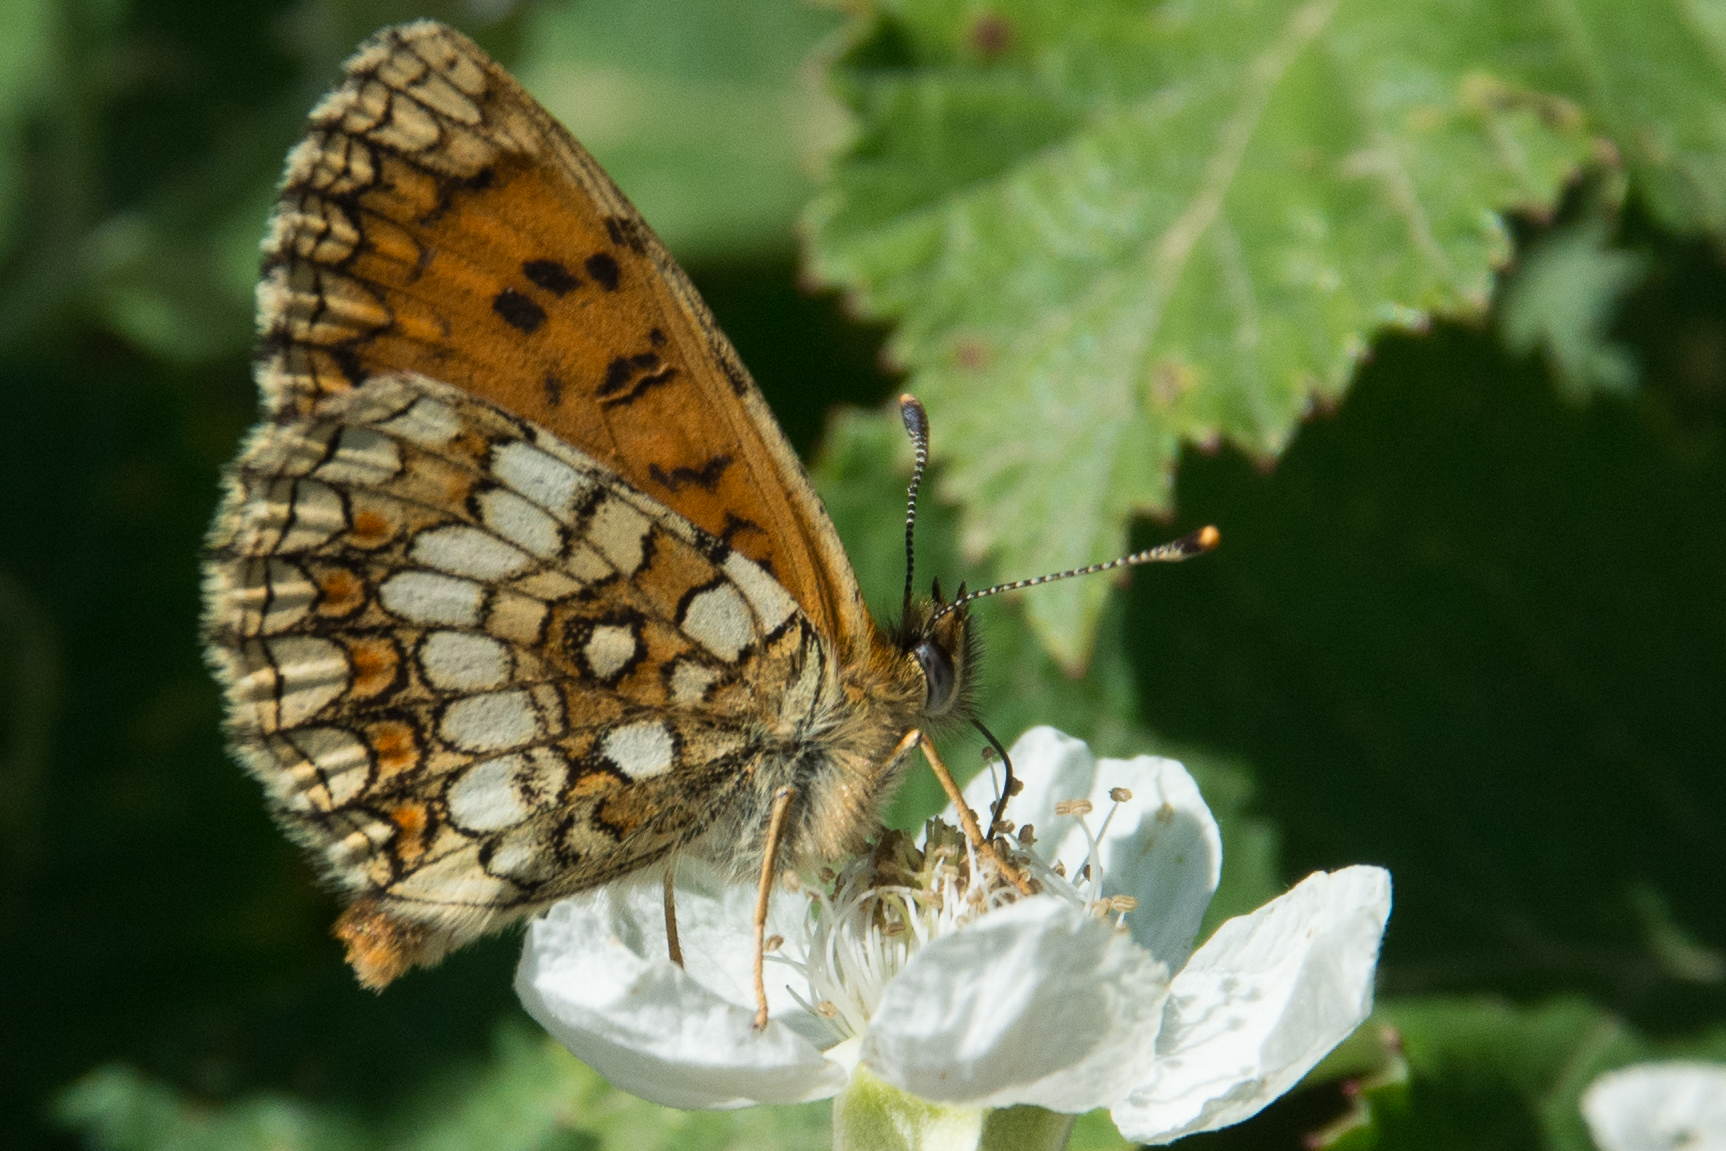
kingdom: Animalia
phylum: Arthropoda
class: Insecta
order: Lepidoptera
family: Nymphalidae
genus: Mellicta
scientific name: Mellicta athalia
